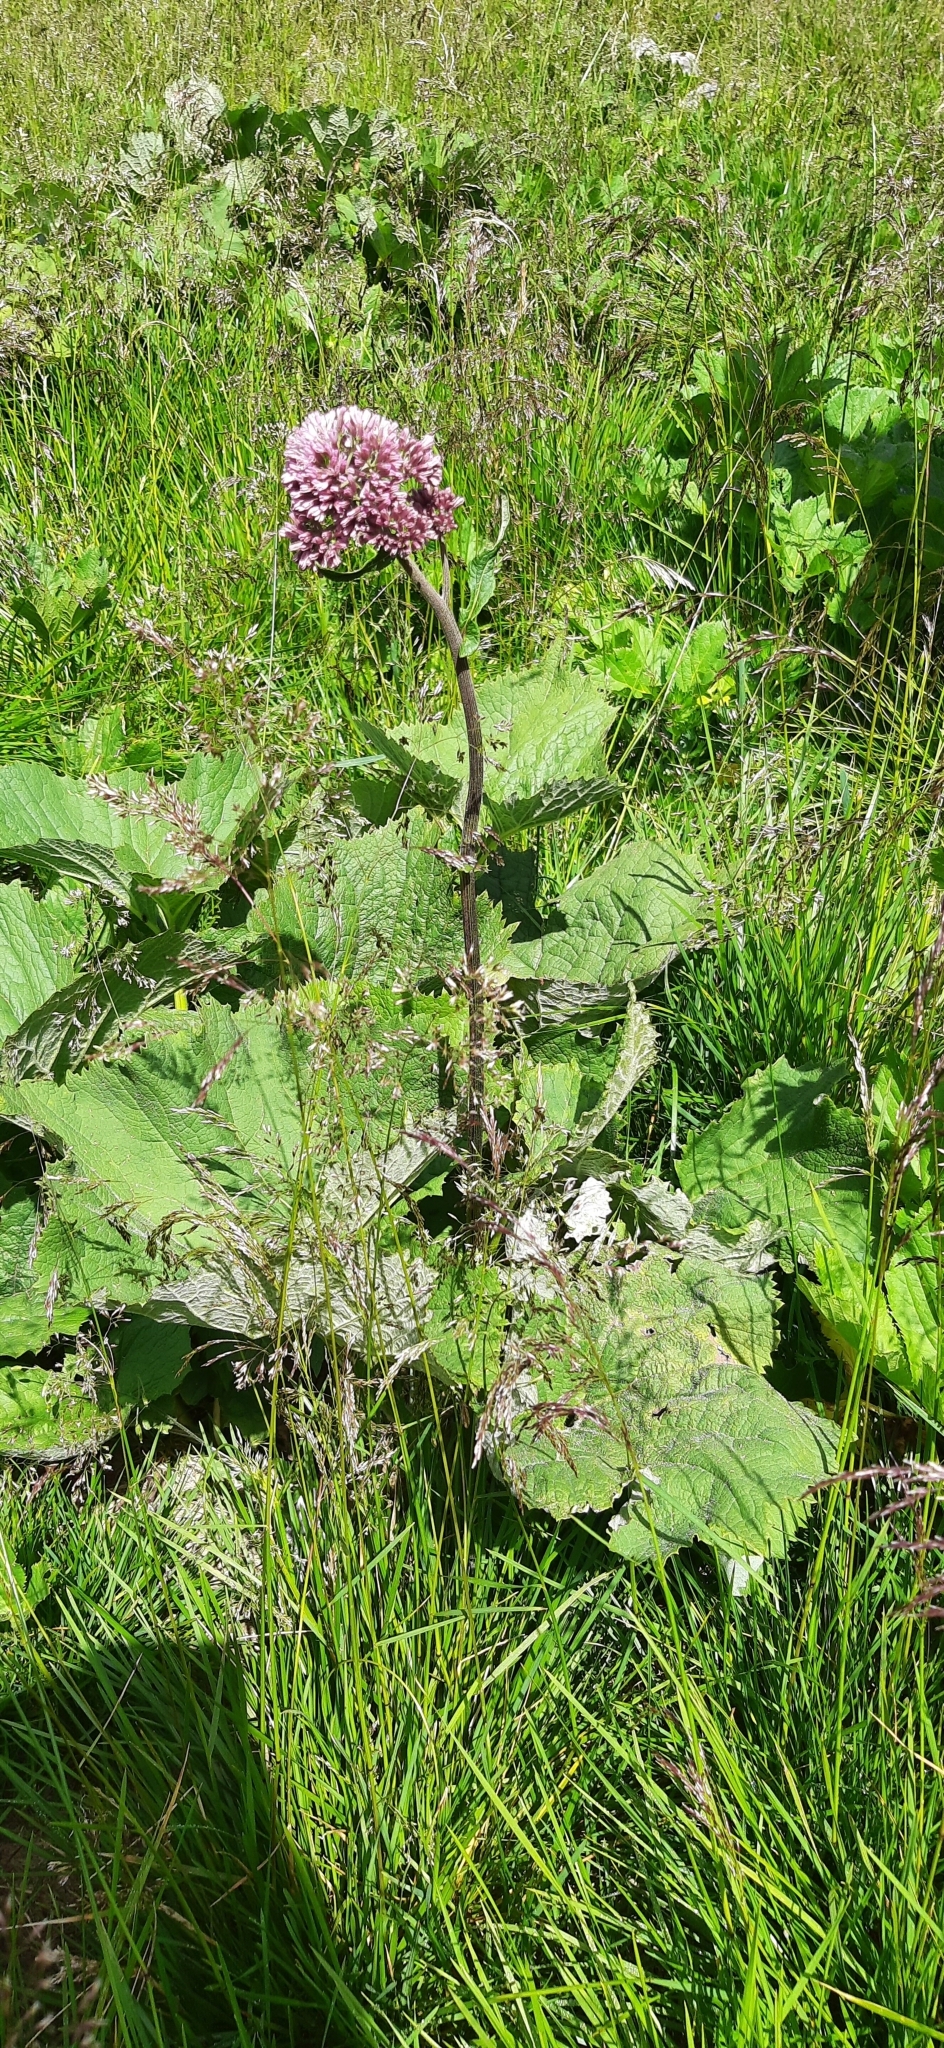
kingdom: Plantae
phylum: Tracheophyta
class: Magnoliopsida
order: Asterales
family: Asteraceae
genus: Adenostyles
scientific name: Adenostyles alliariae
